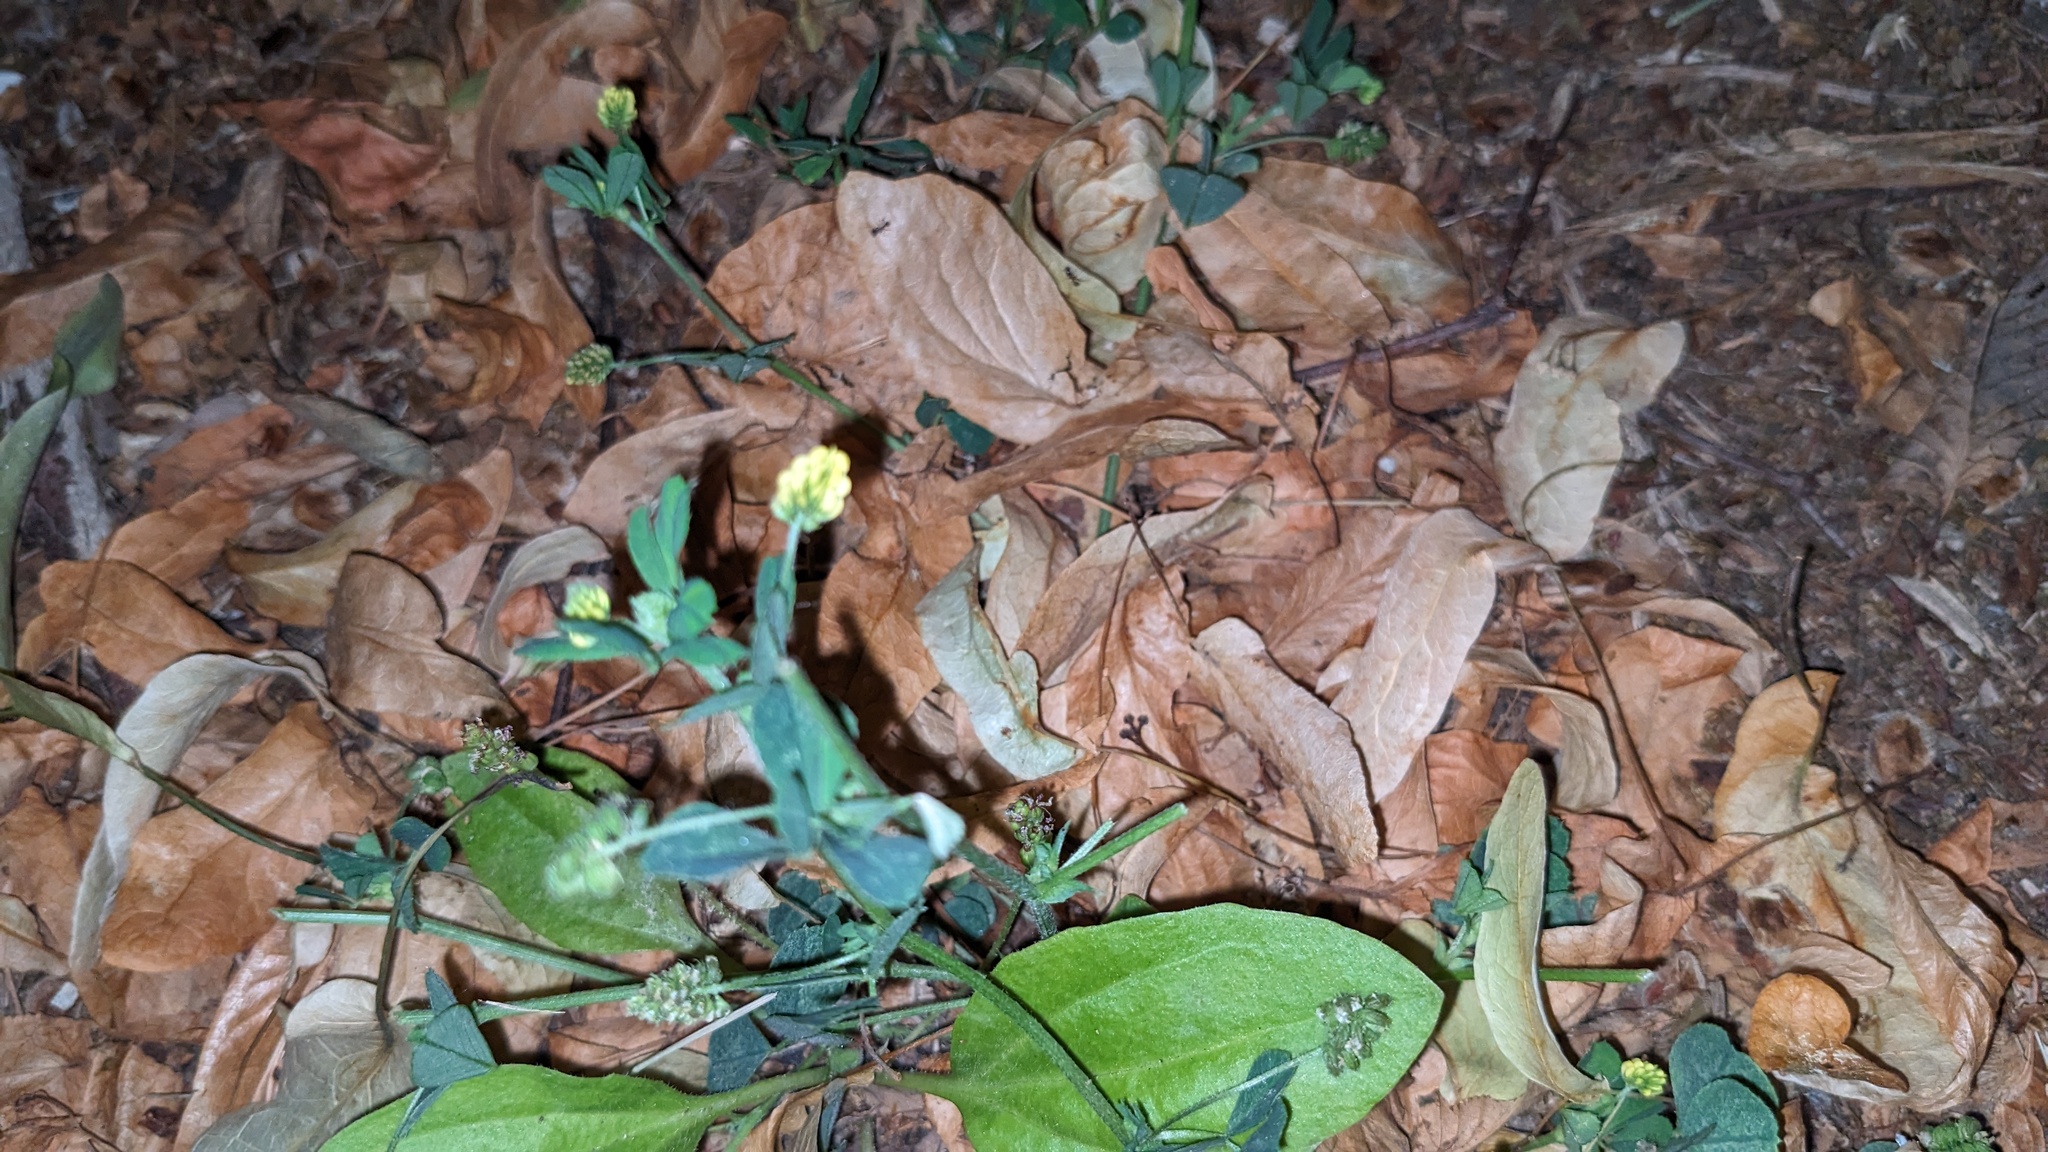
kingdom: Plantae
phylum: Tracheophyta
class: Magnoliopsida
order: Fabales
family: Fabaceae
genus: Medicago
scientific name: Medicago lupulina
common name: Black medick
